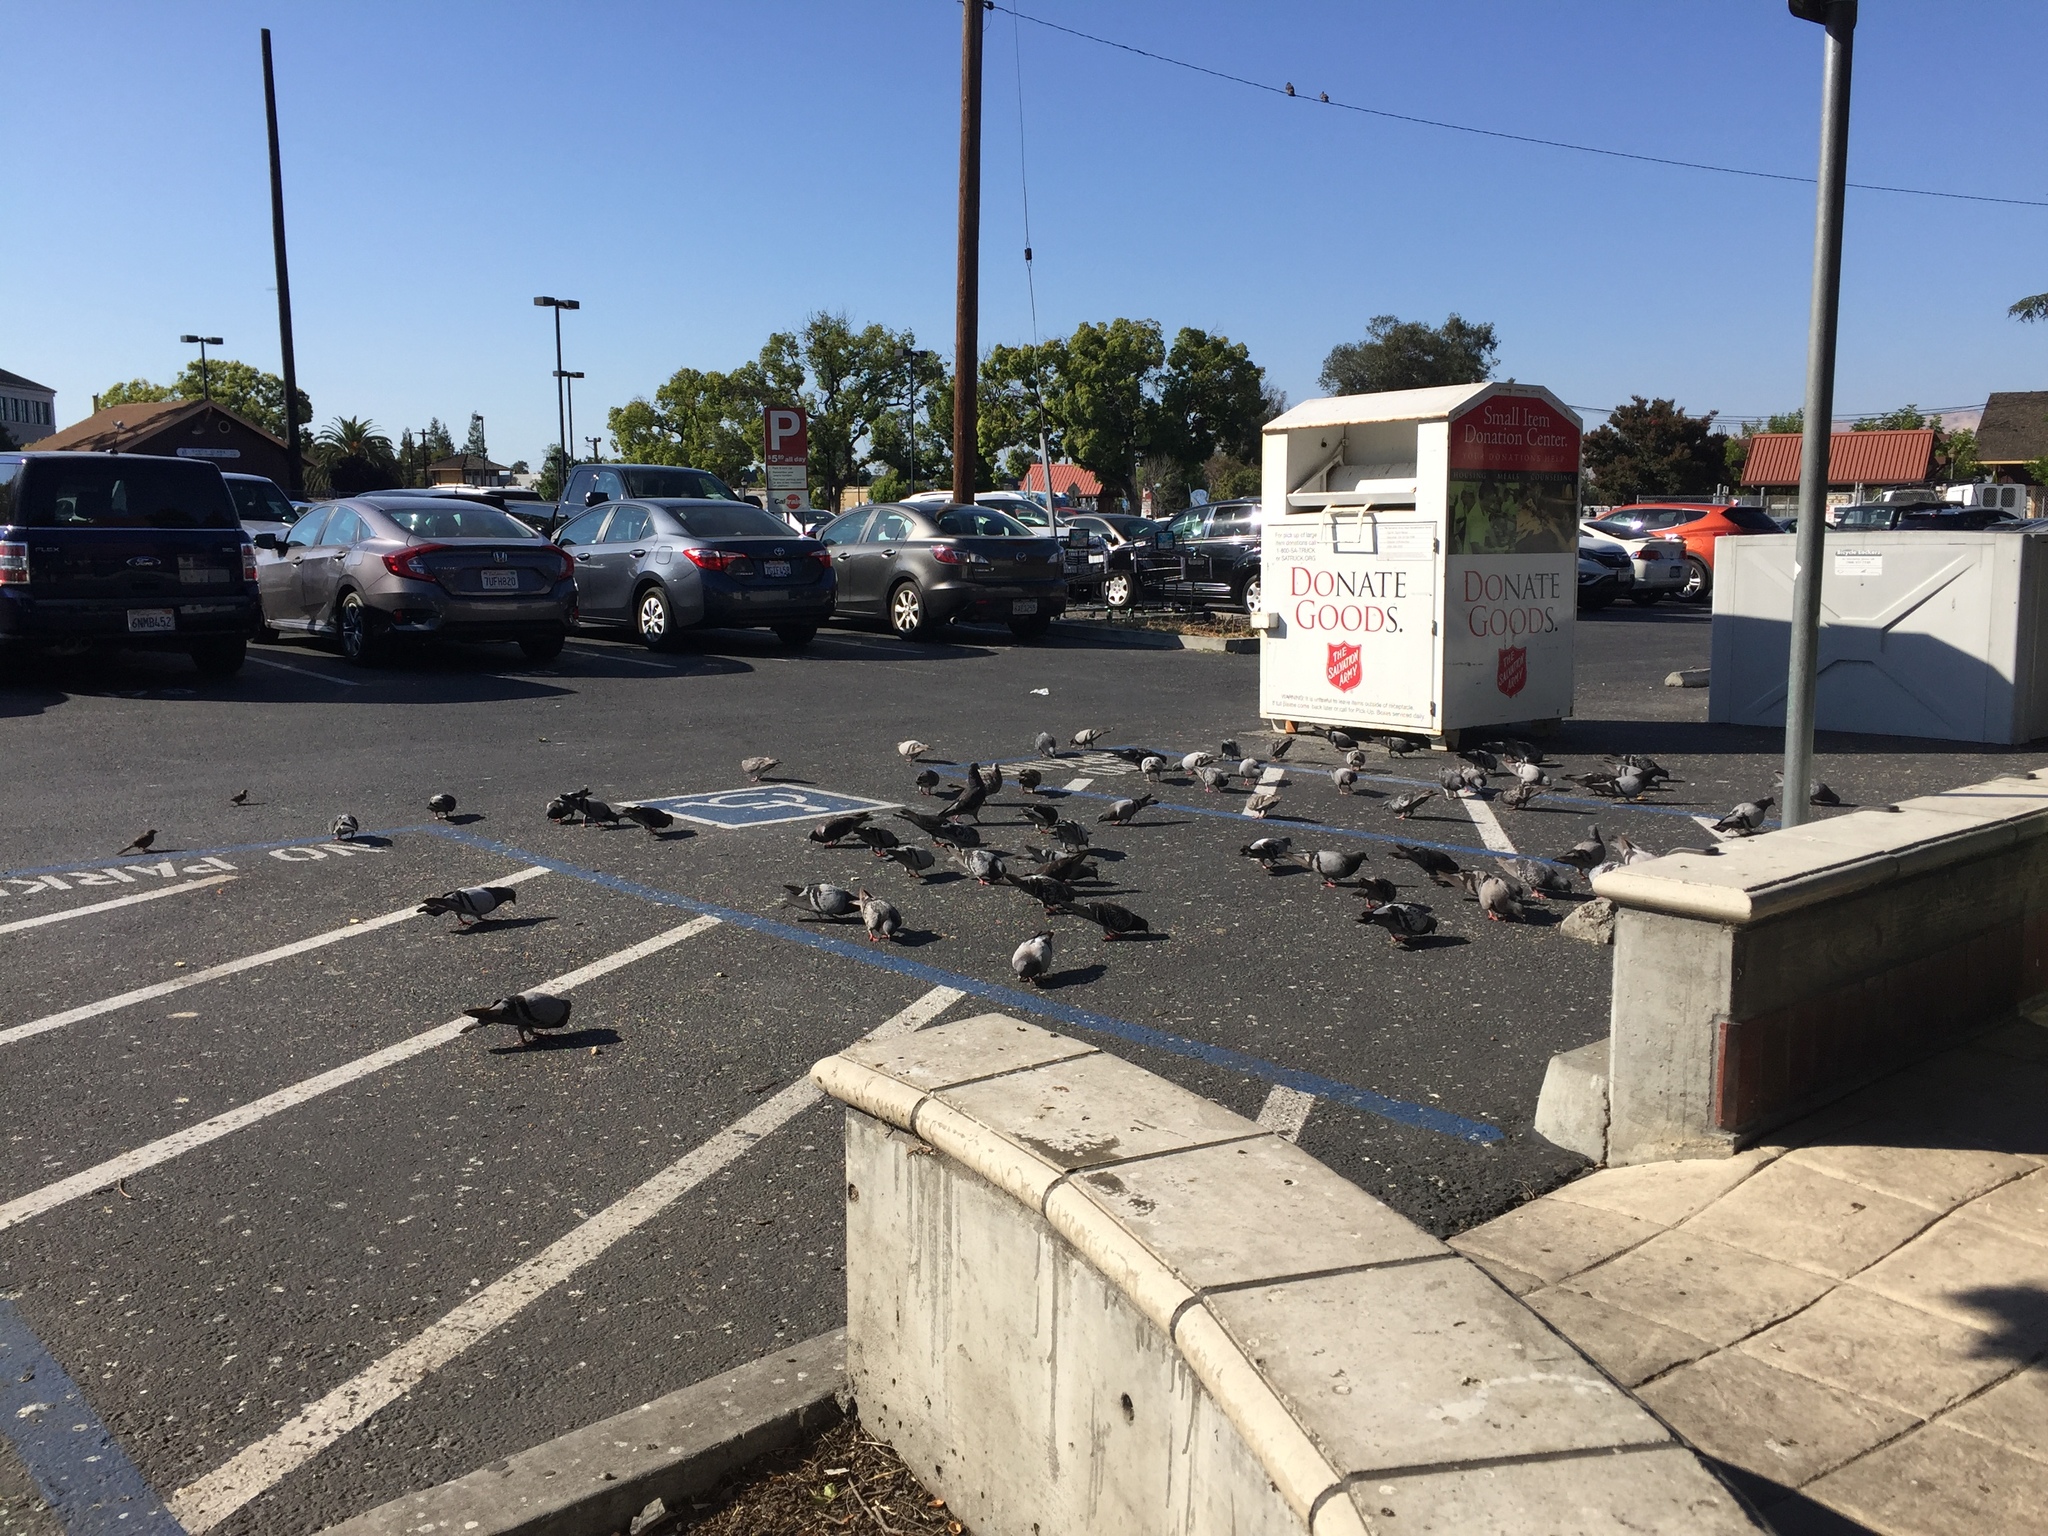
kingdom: Animalia
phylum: Chordata
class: Aves
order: Columbiformes
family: Columbidae
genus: Columba
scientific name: Columba livia
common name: Rock pigeon
